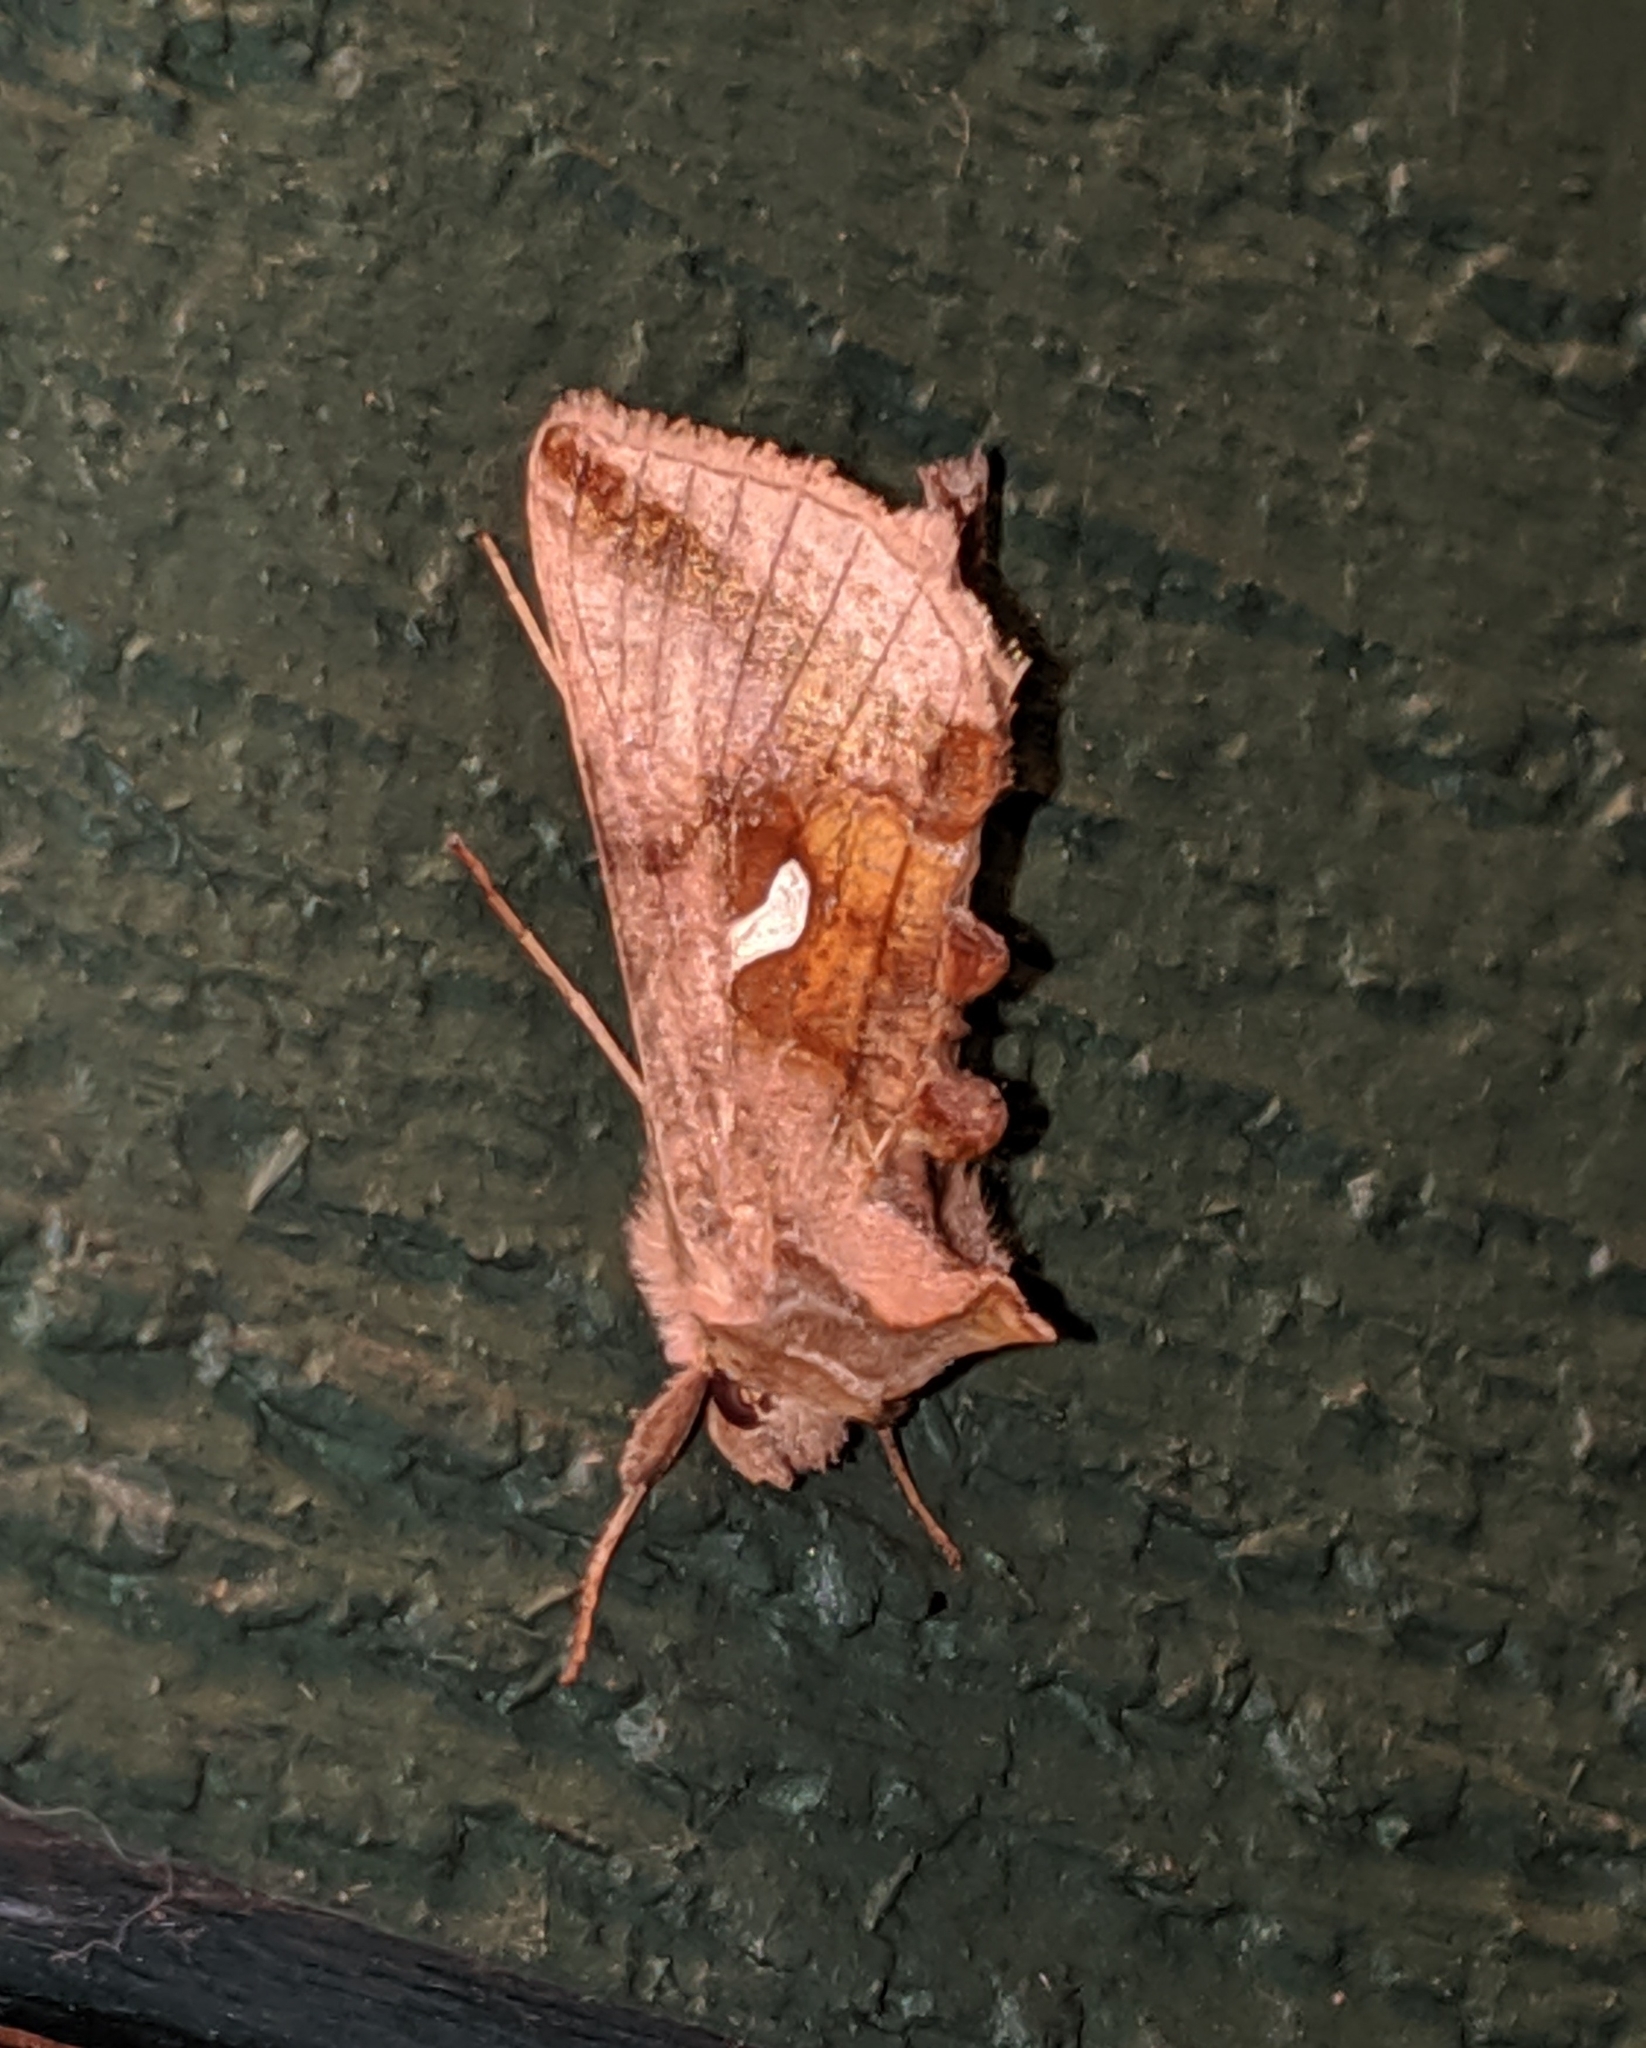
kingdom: Animalia
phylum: Arthropoda
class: Insecta
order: Lepidoptera
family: Noctuidae
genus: Autographa
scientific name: Autographa metallica
